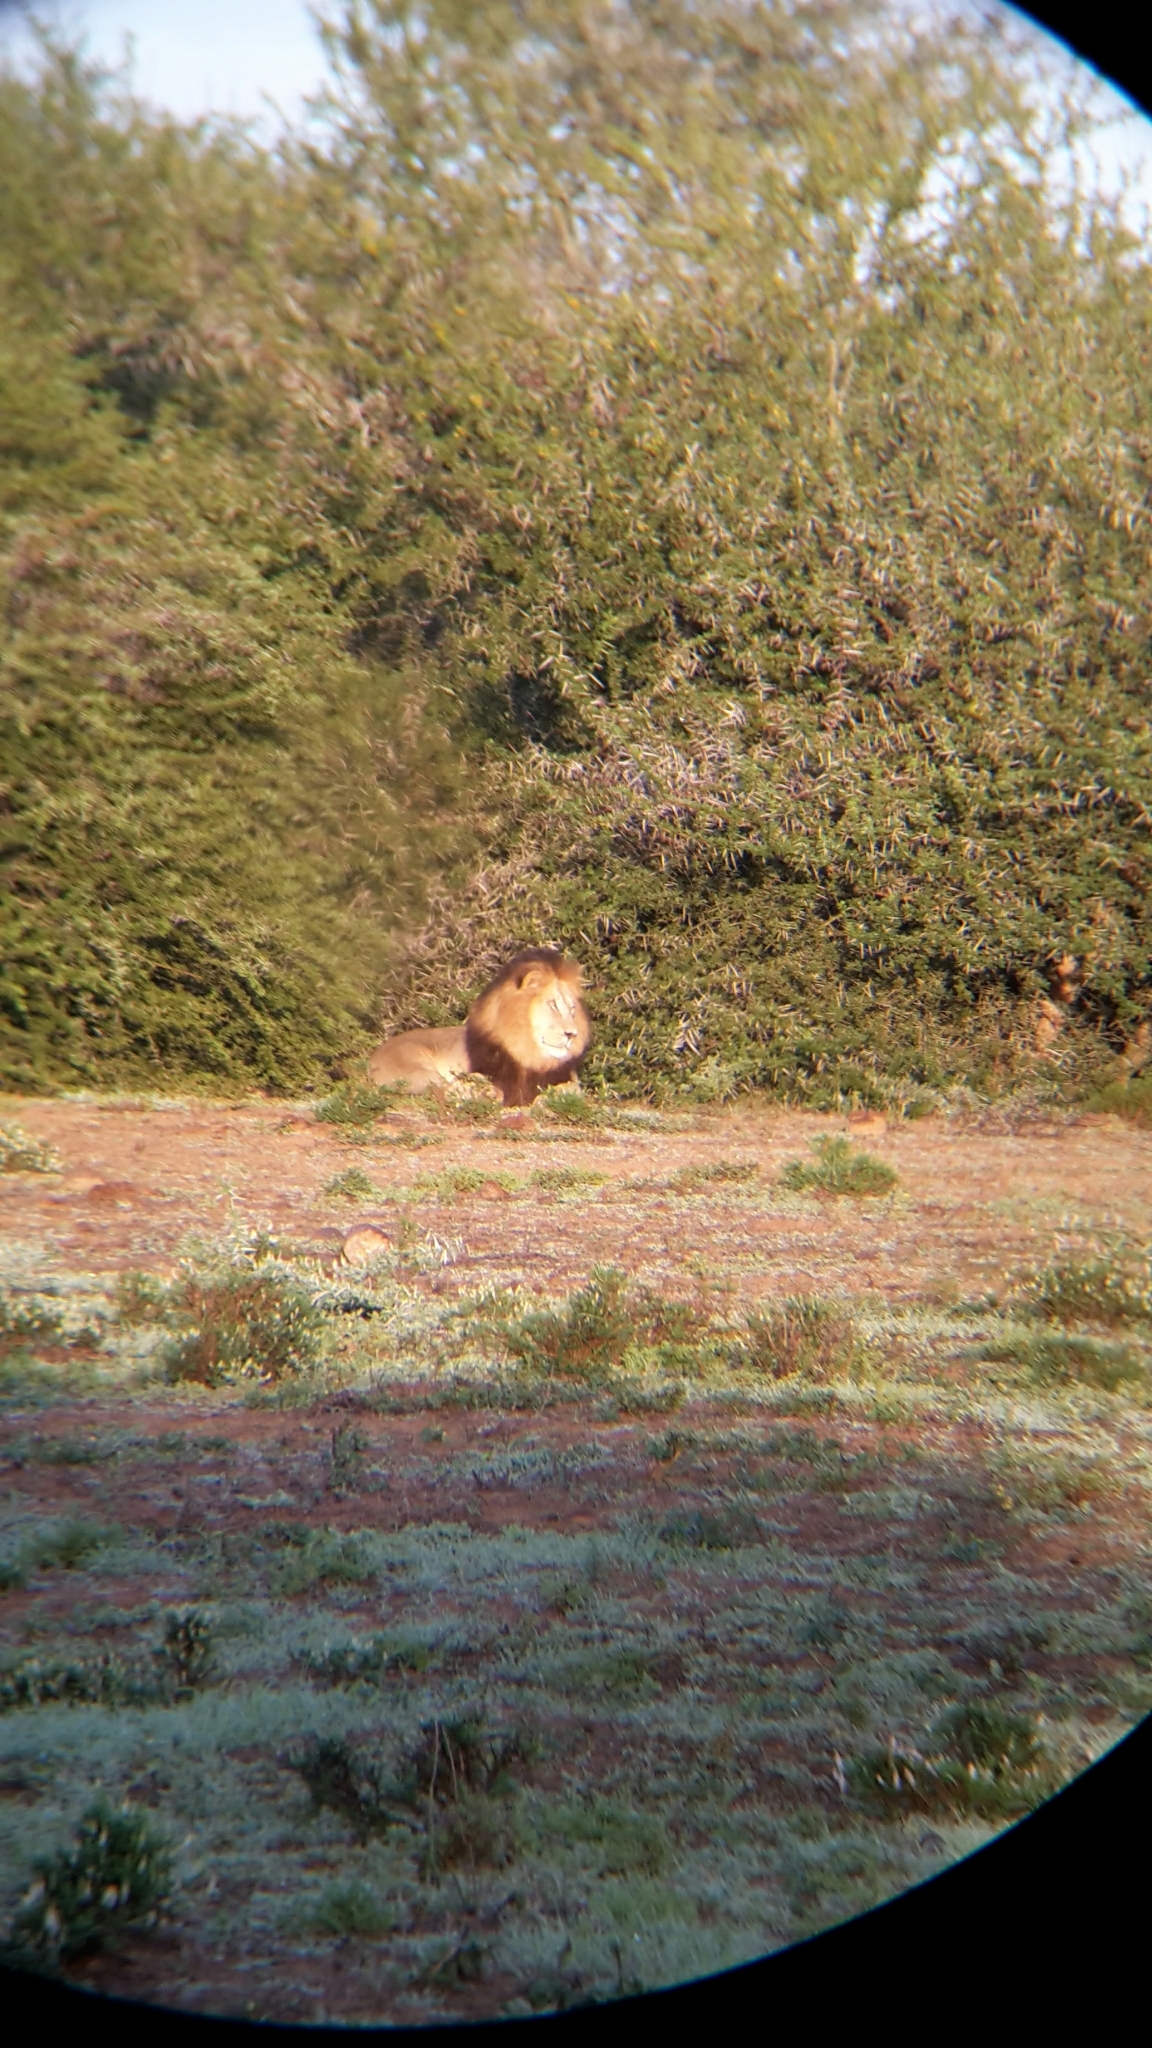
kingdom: Animalia
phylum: Chordata
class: Mammalia
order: Carnivora
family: Felidae
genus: Panthera
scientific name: Panthera leo
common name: Lion
